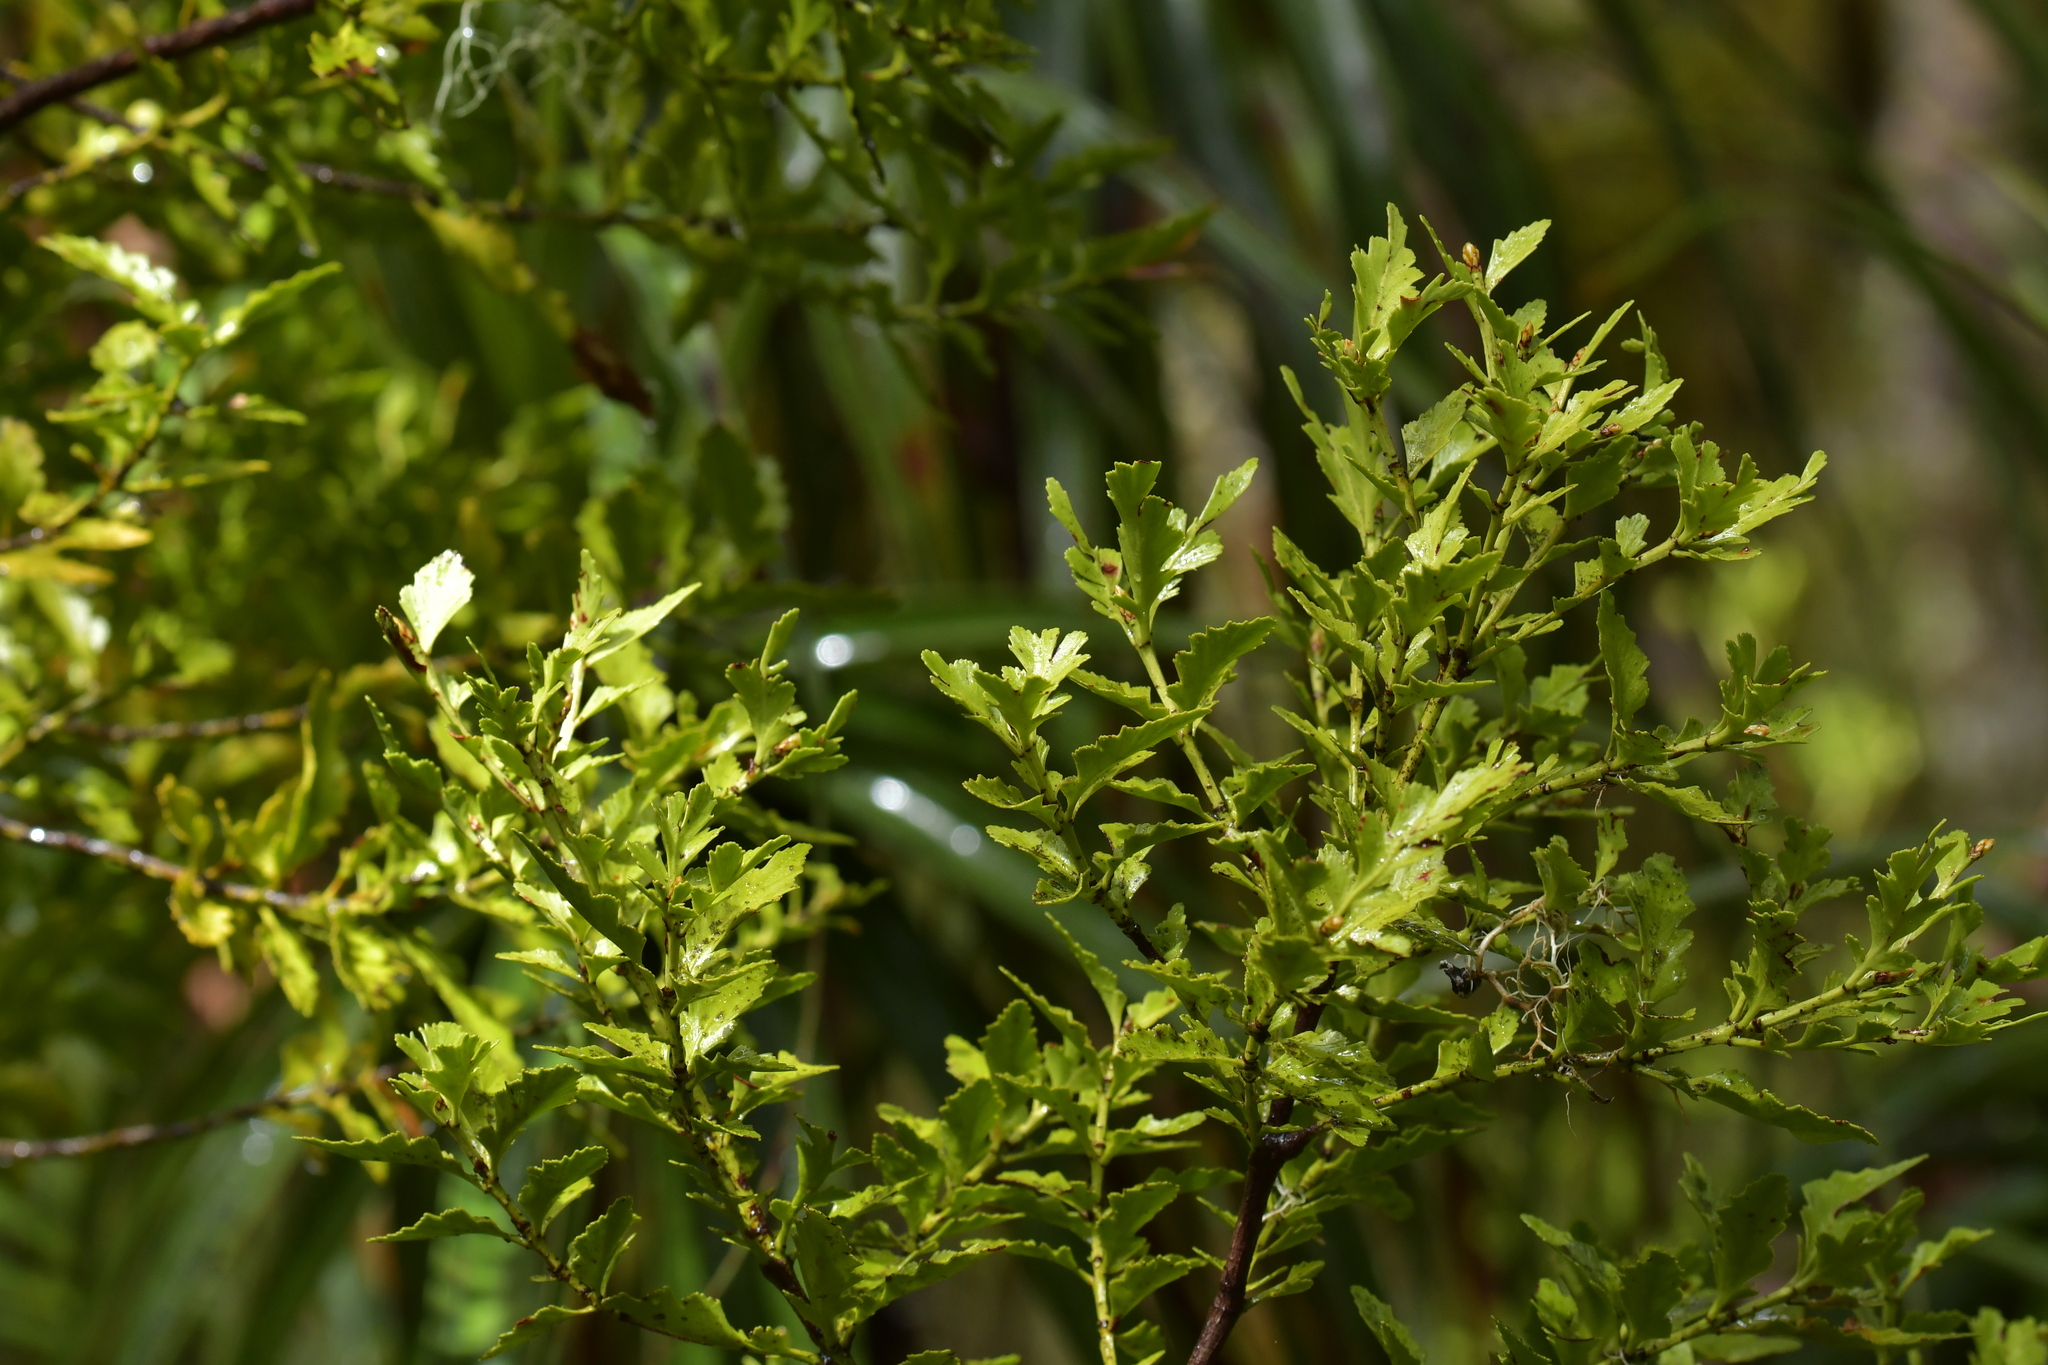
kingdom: Plantae
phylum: Tracheophyta
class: Pinopsida
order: Pinales
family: Phyllocladaceae
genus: Phyllocladus
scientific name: Phyllocladus trichomanoides
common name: Celery pine
